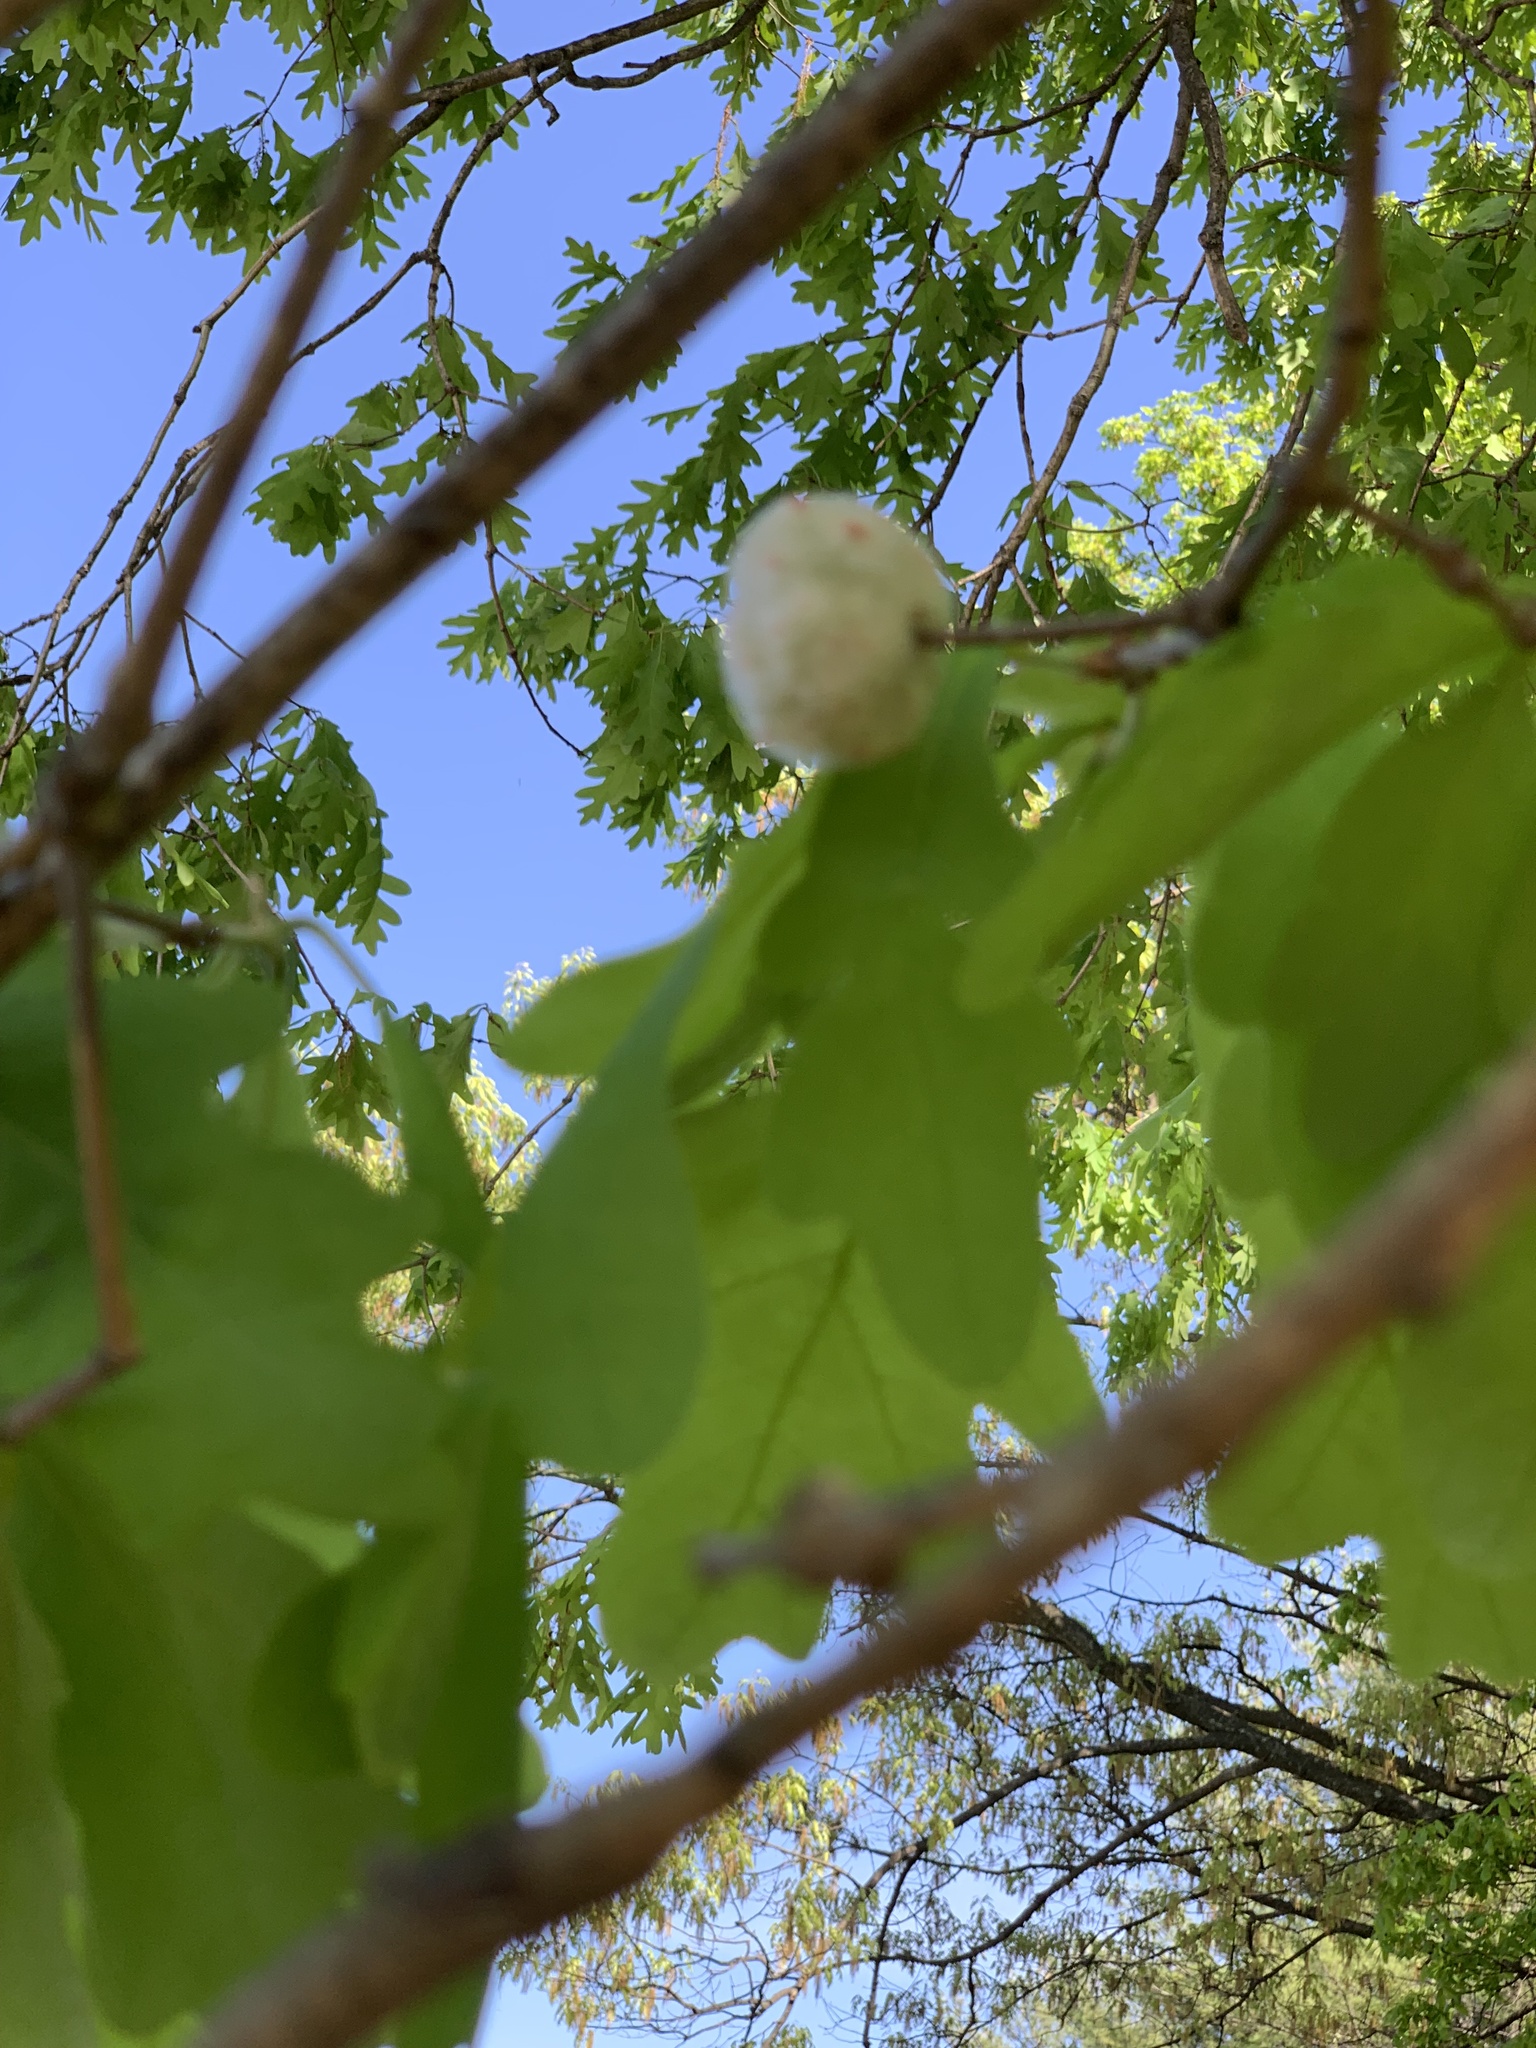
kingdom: Animalia
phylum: Arthropoda
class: Insecta
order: Hymenoptera
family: Cynipidae
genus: Callirhytis
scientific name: Callirhytis
